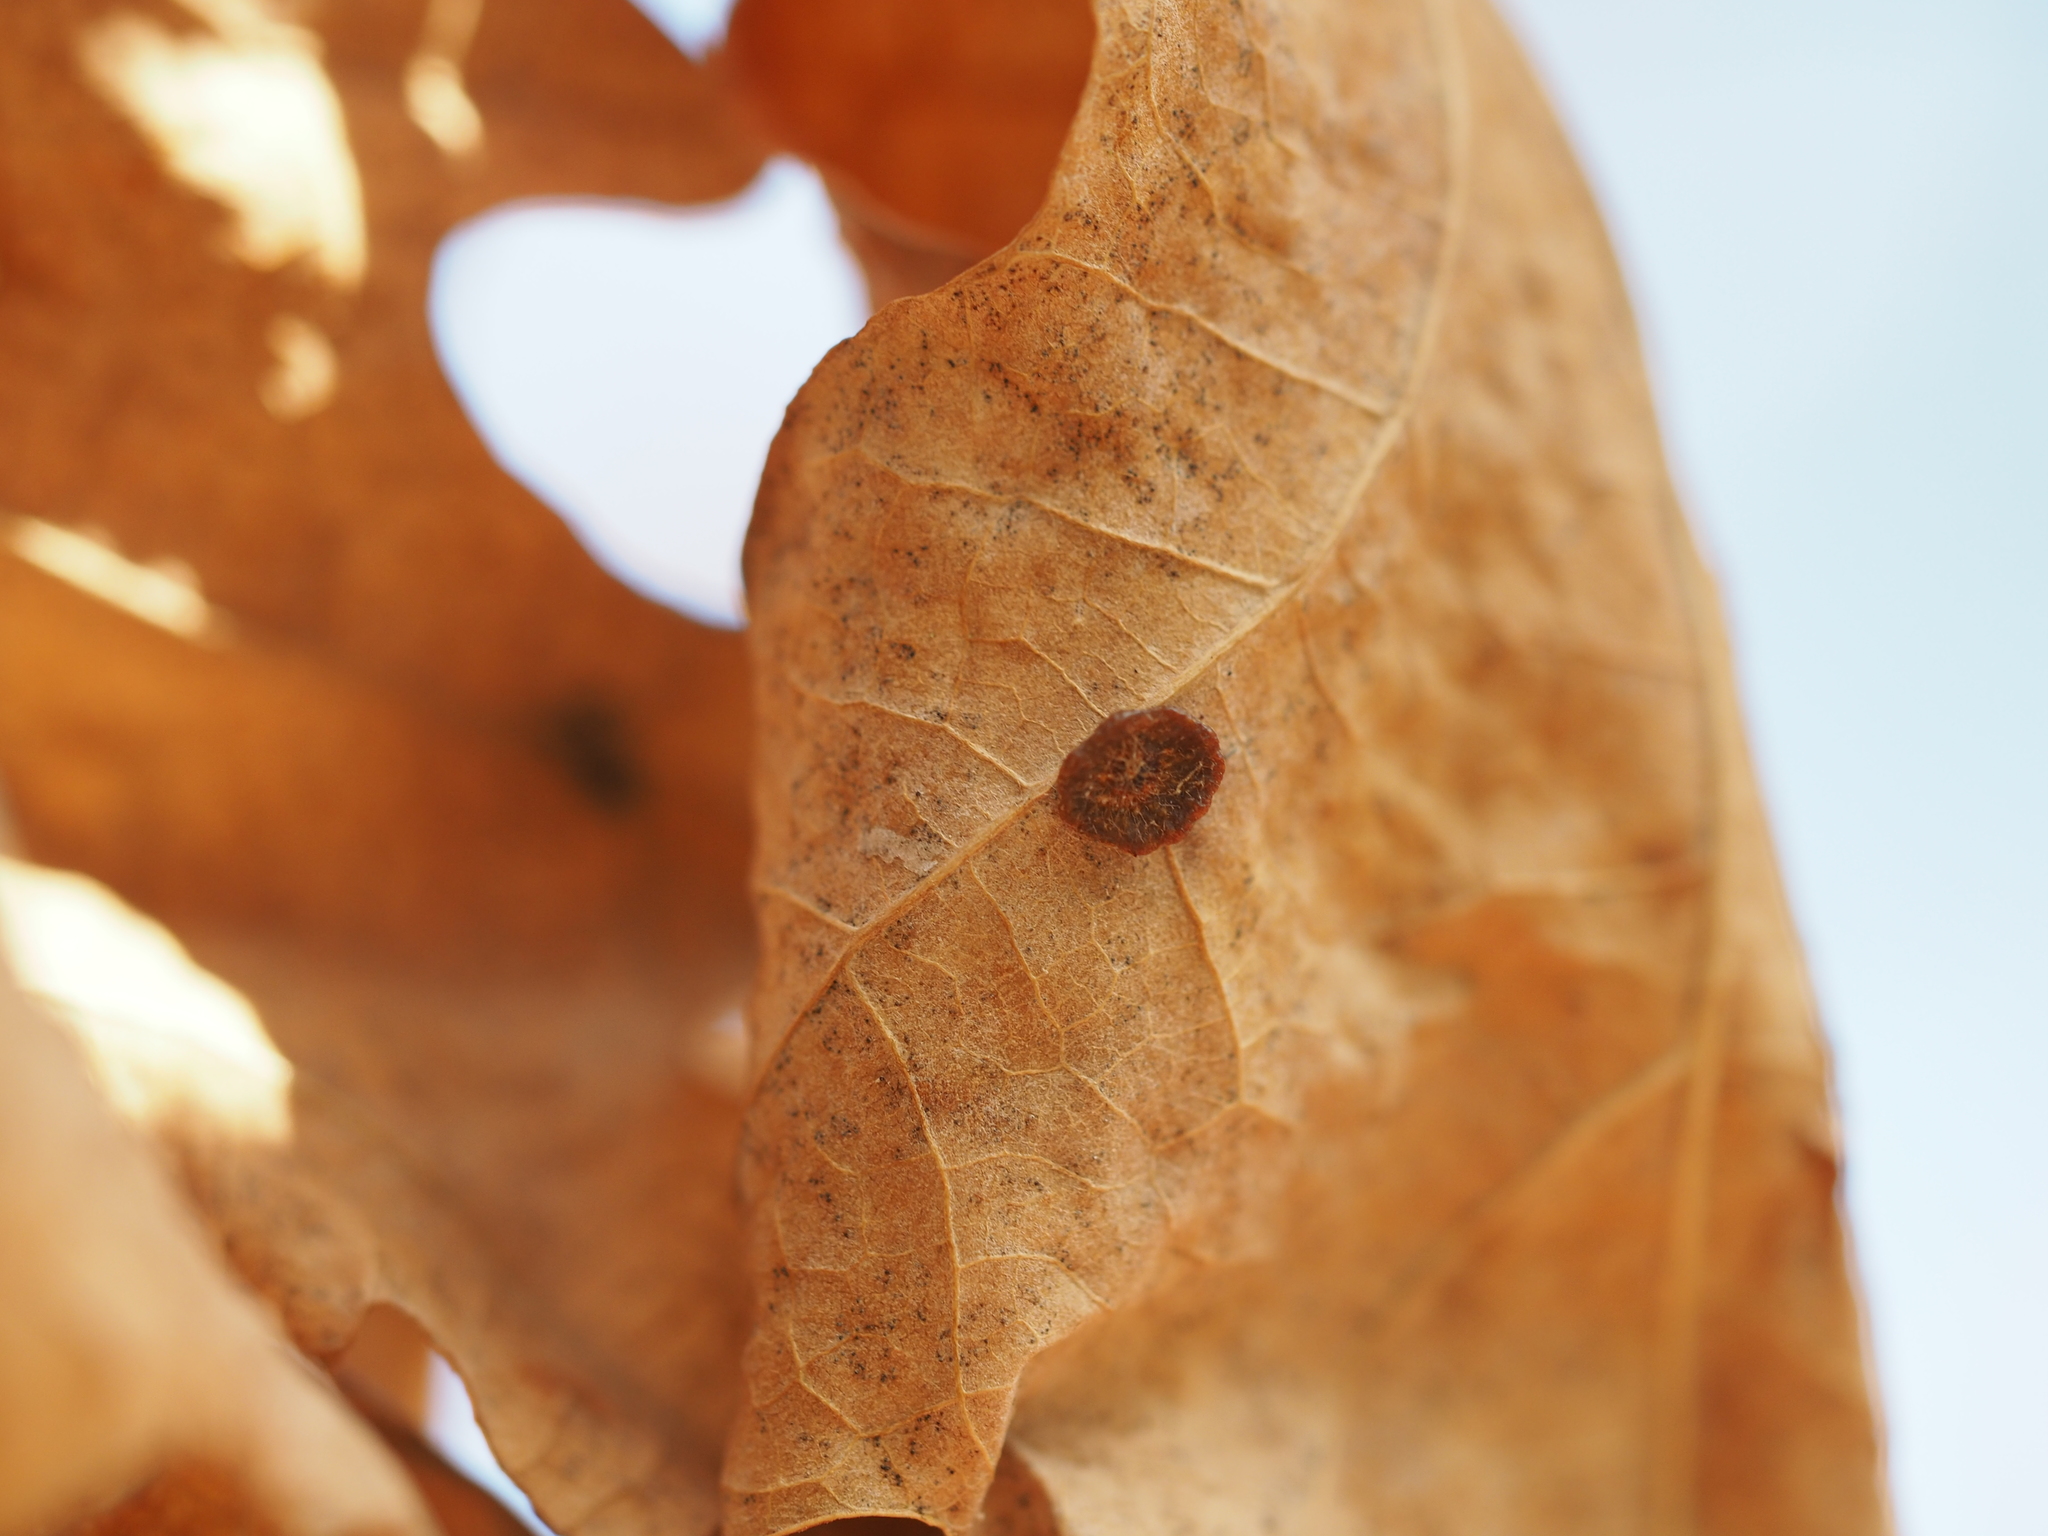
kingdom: Animalia
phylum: Arthropoda
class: Insecta
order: Hymenoptera
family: Cynipidae
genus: Neuroterus
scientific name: Neuroterus albipes
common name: Smooth spangle gall
